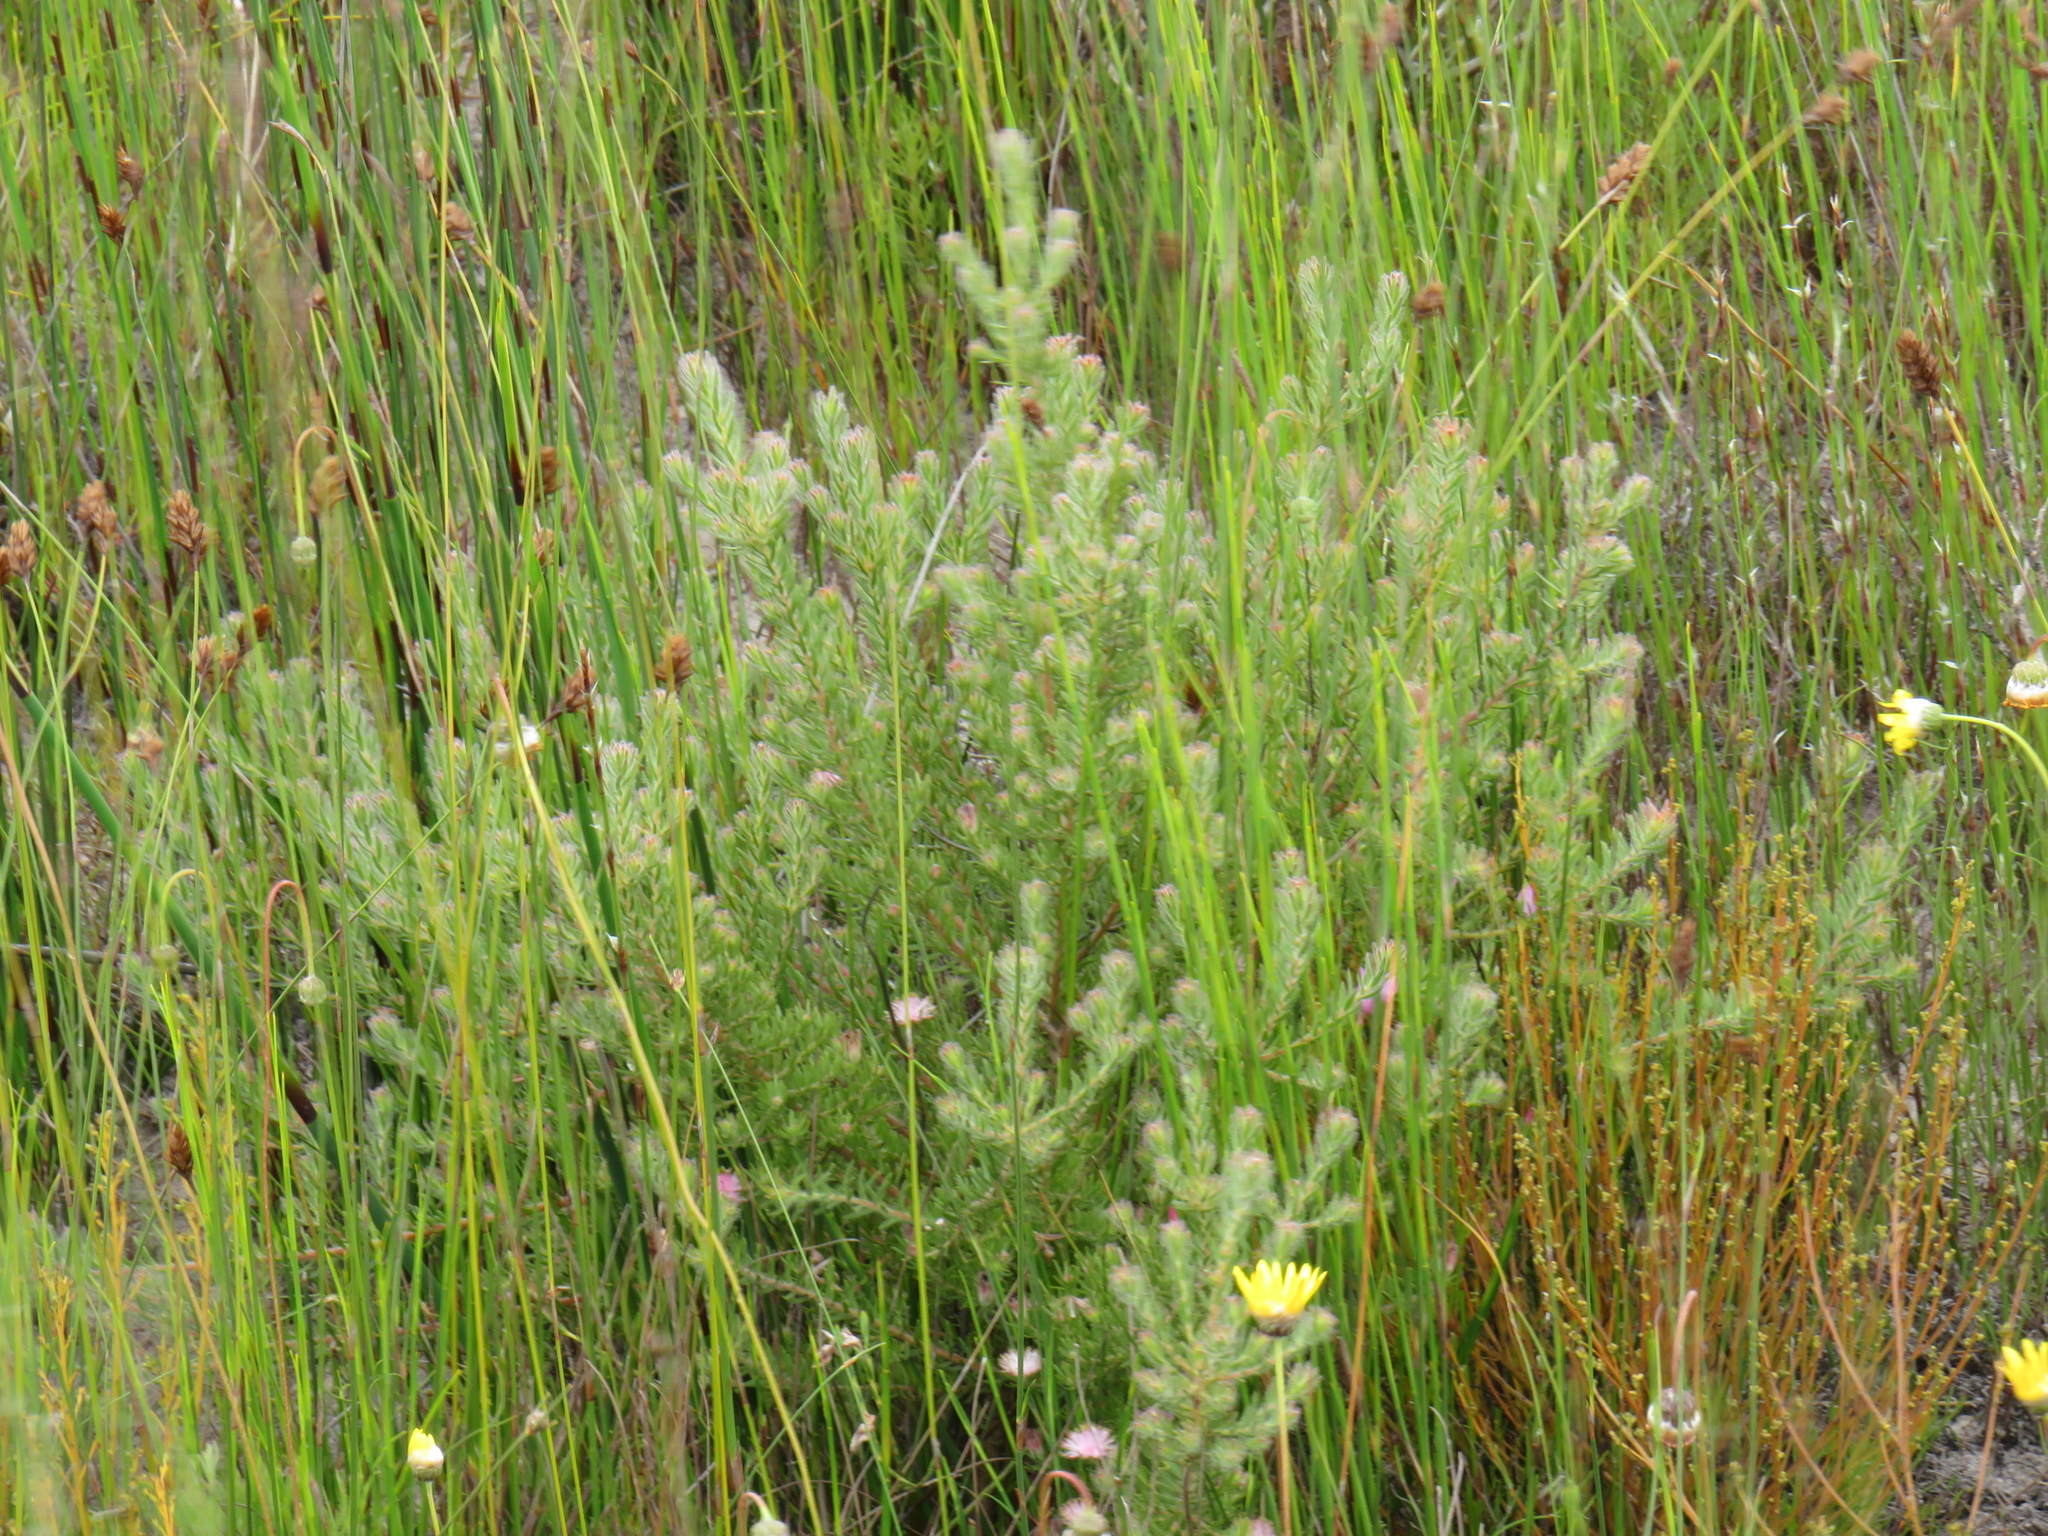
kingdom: Plantae
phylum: Tracheophyta
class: Magnoliopsida
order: Proteales
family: Proteaceae
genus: Diastella
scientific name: Diastella proteoides
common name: Flats silkypuff
